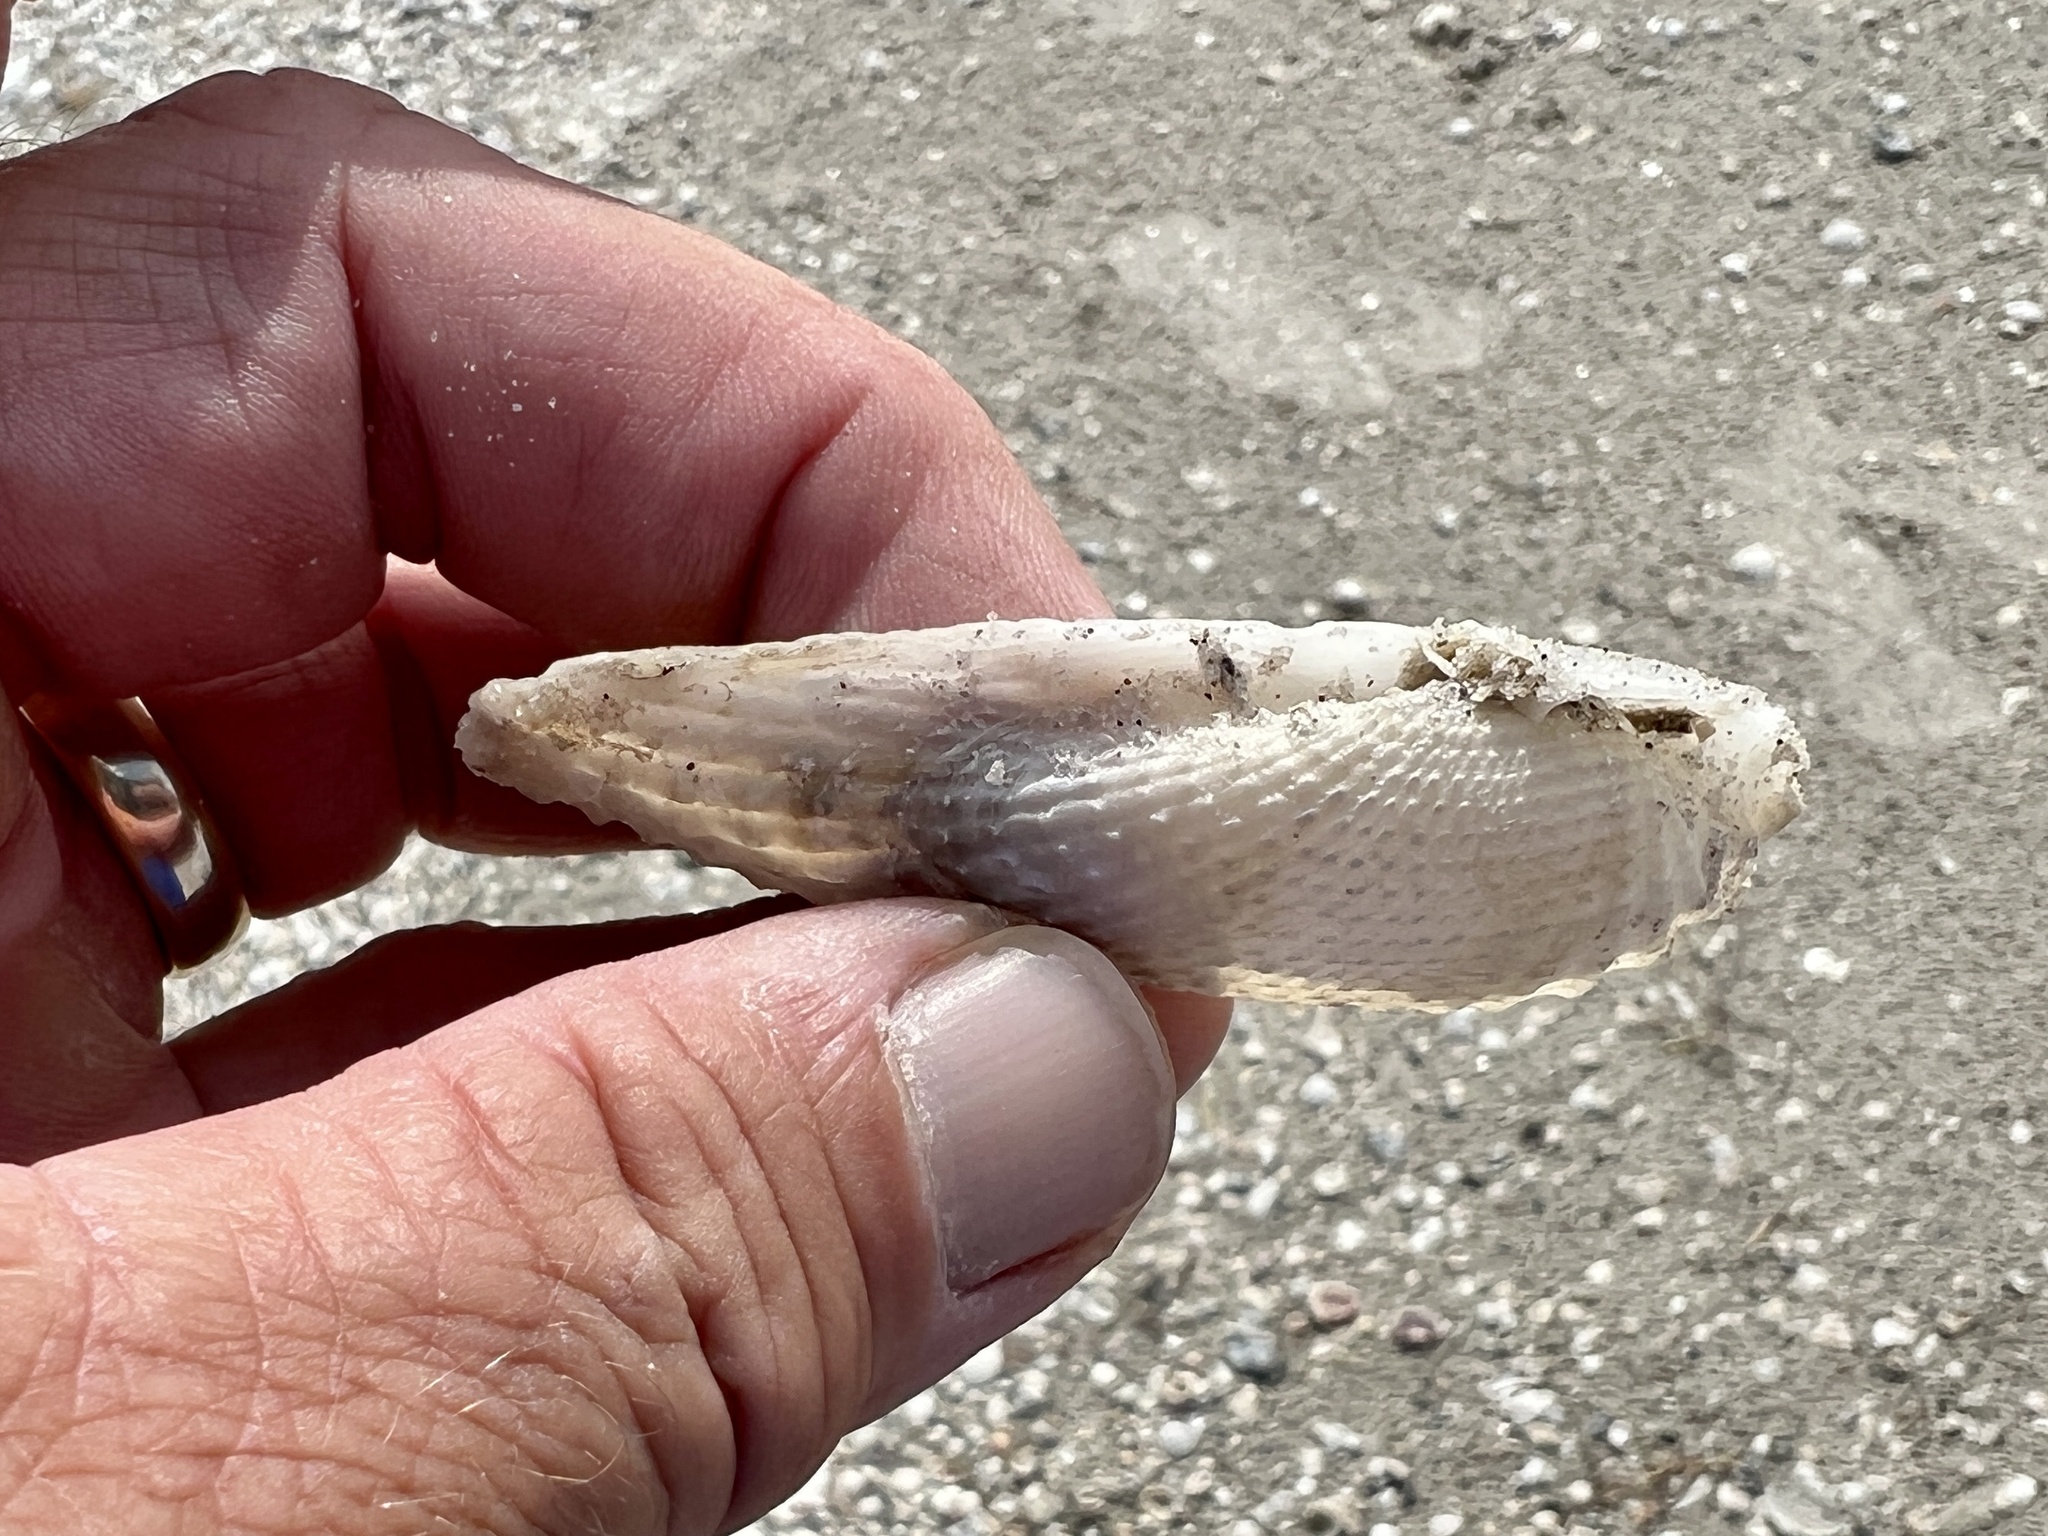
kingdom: Animalia
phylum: Mollusca
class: Bivalvia
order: Myida
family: Pholadidae
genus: Cyrtopleura
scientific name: Cyrtopleura costata
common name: Angel wing
